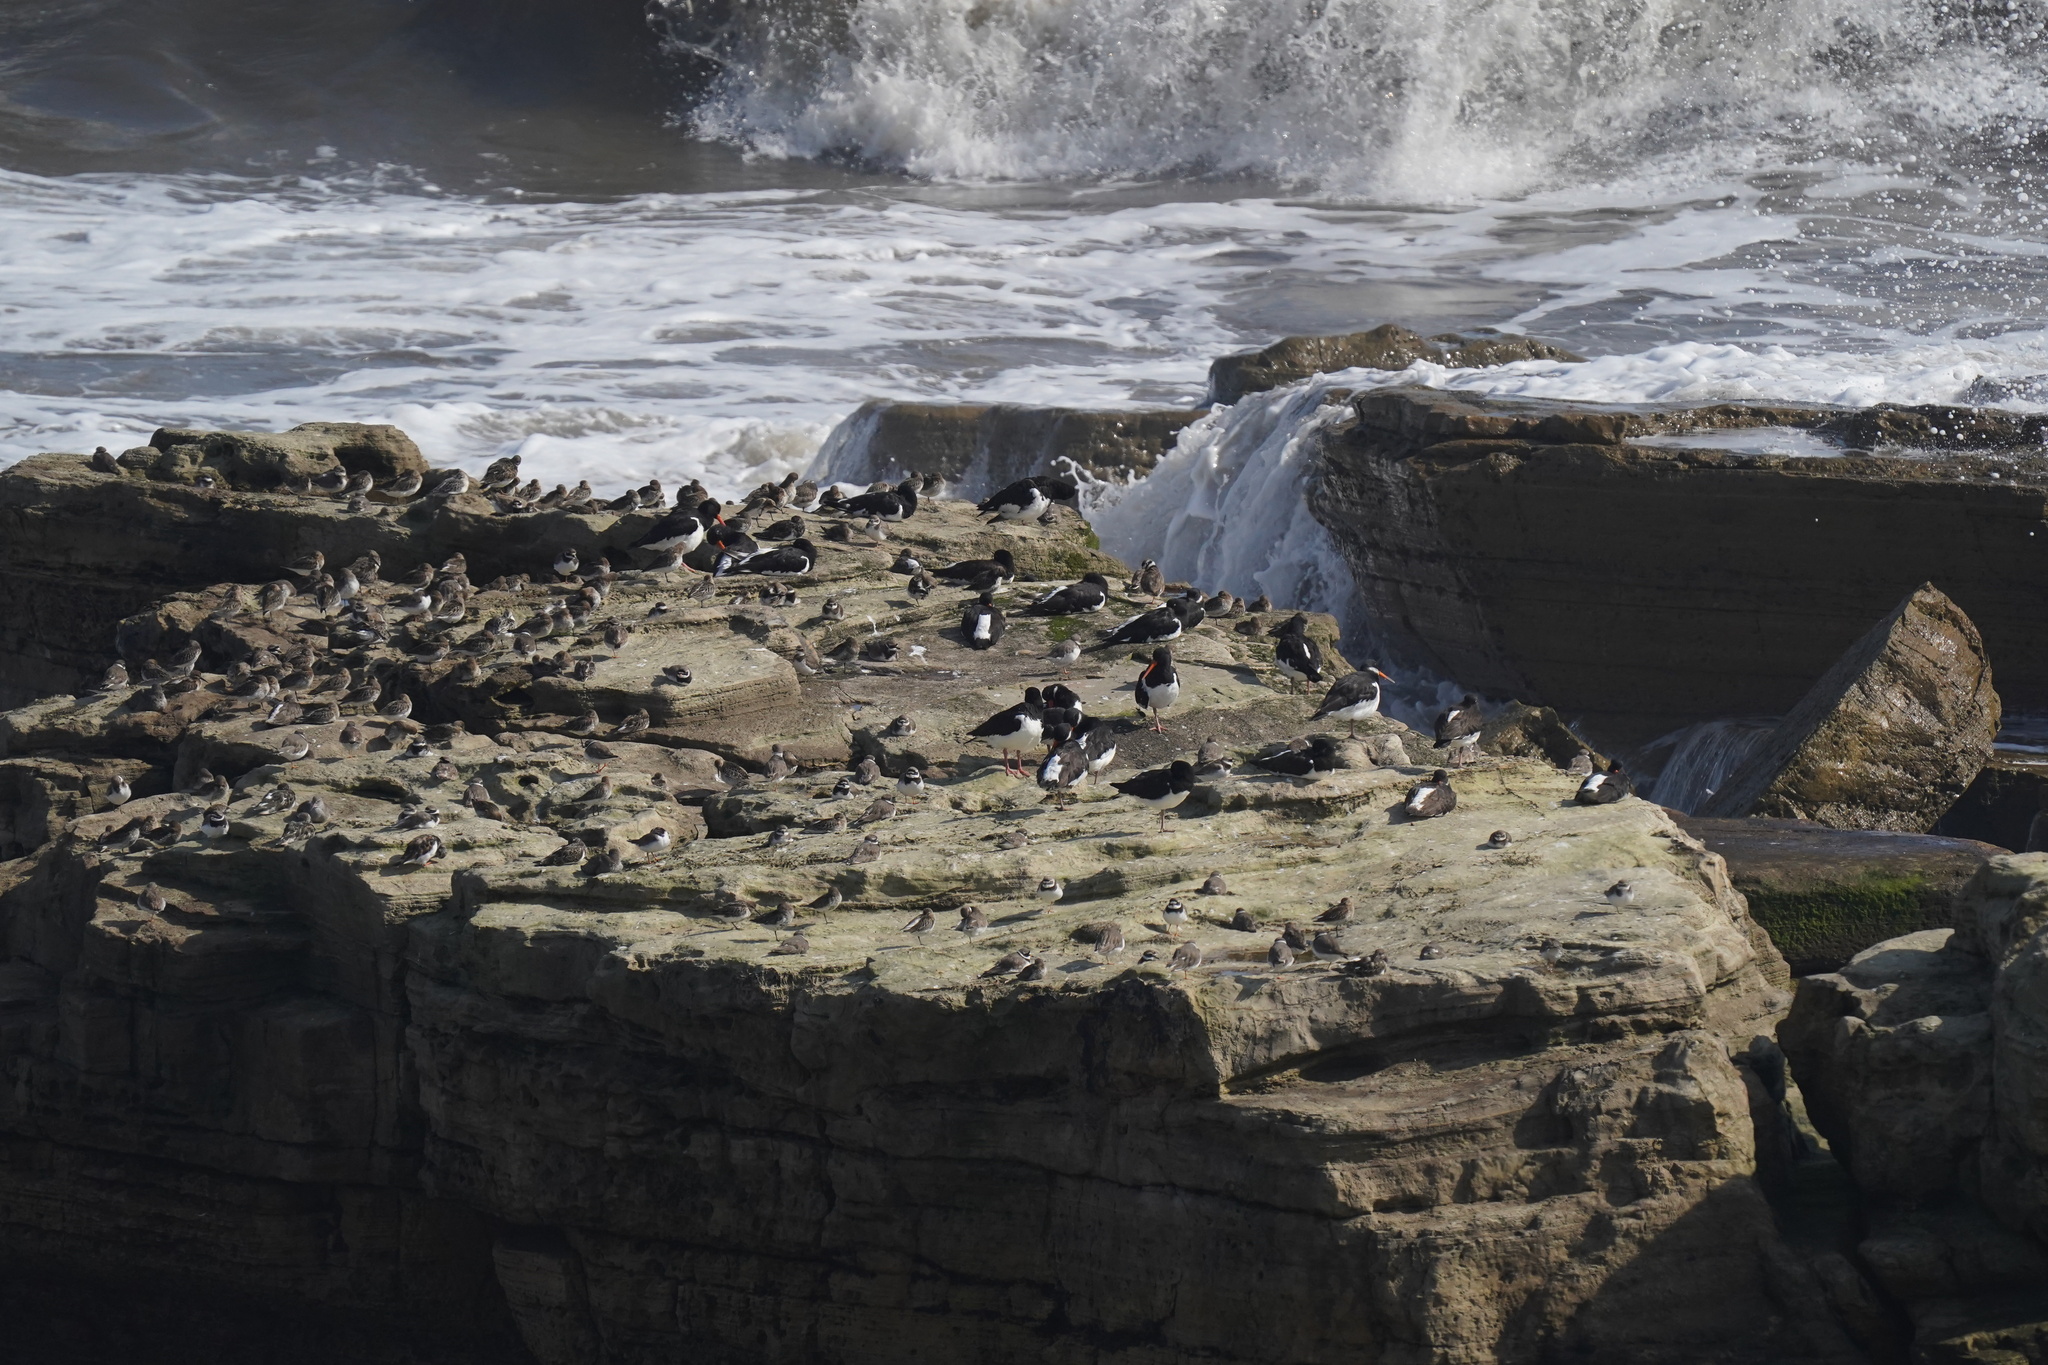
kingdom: Animalia
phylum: Chordata
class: Aves
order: Charadriiformes
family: Scolopacidae
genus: Calidris
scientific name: Calidris maritima
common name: Purple sandpiper
